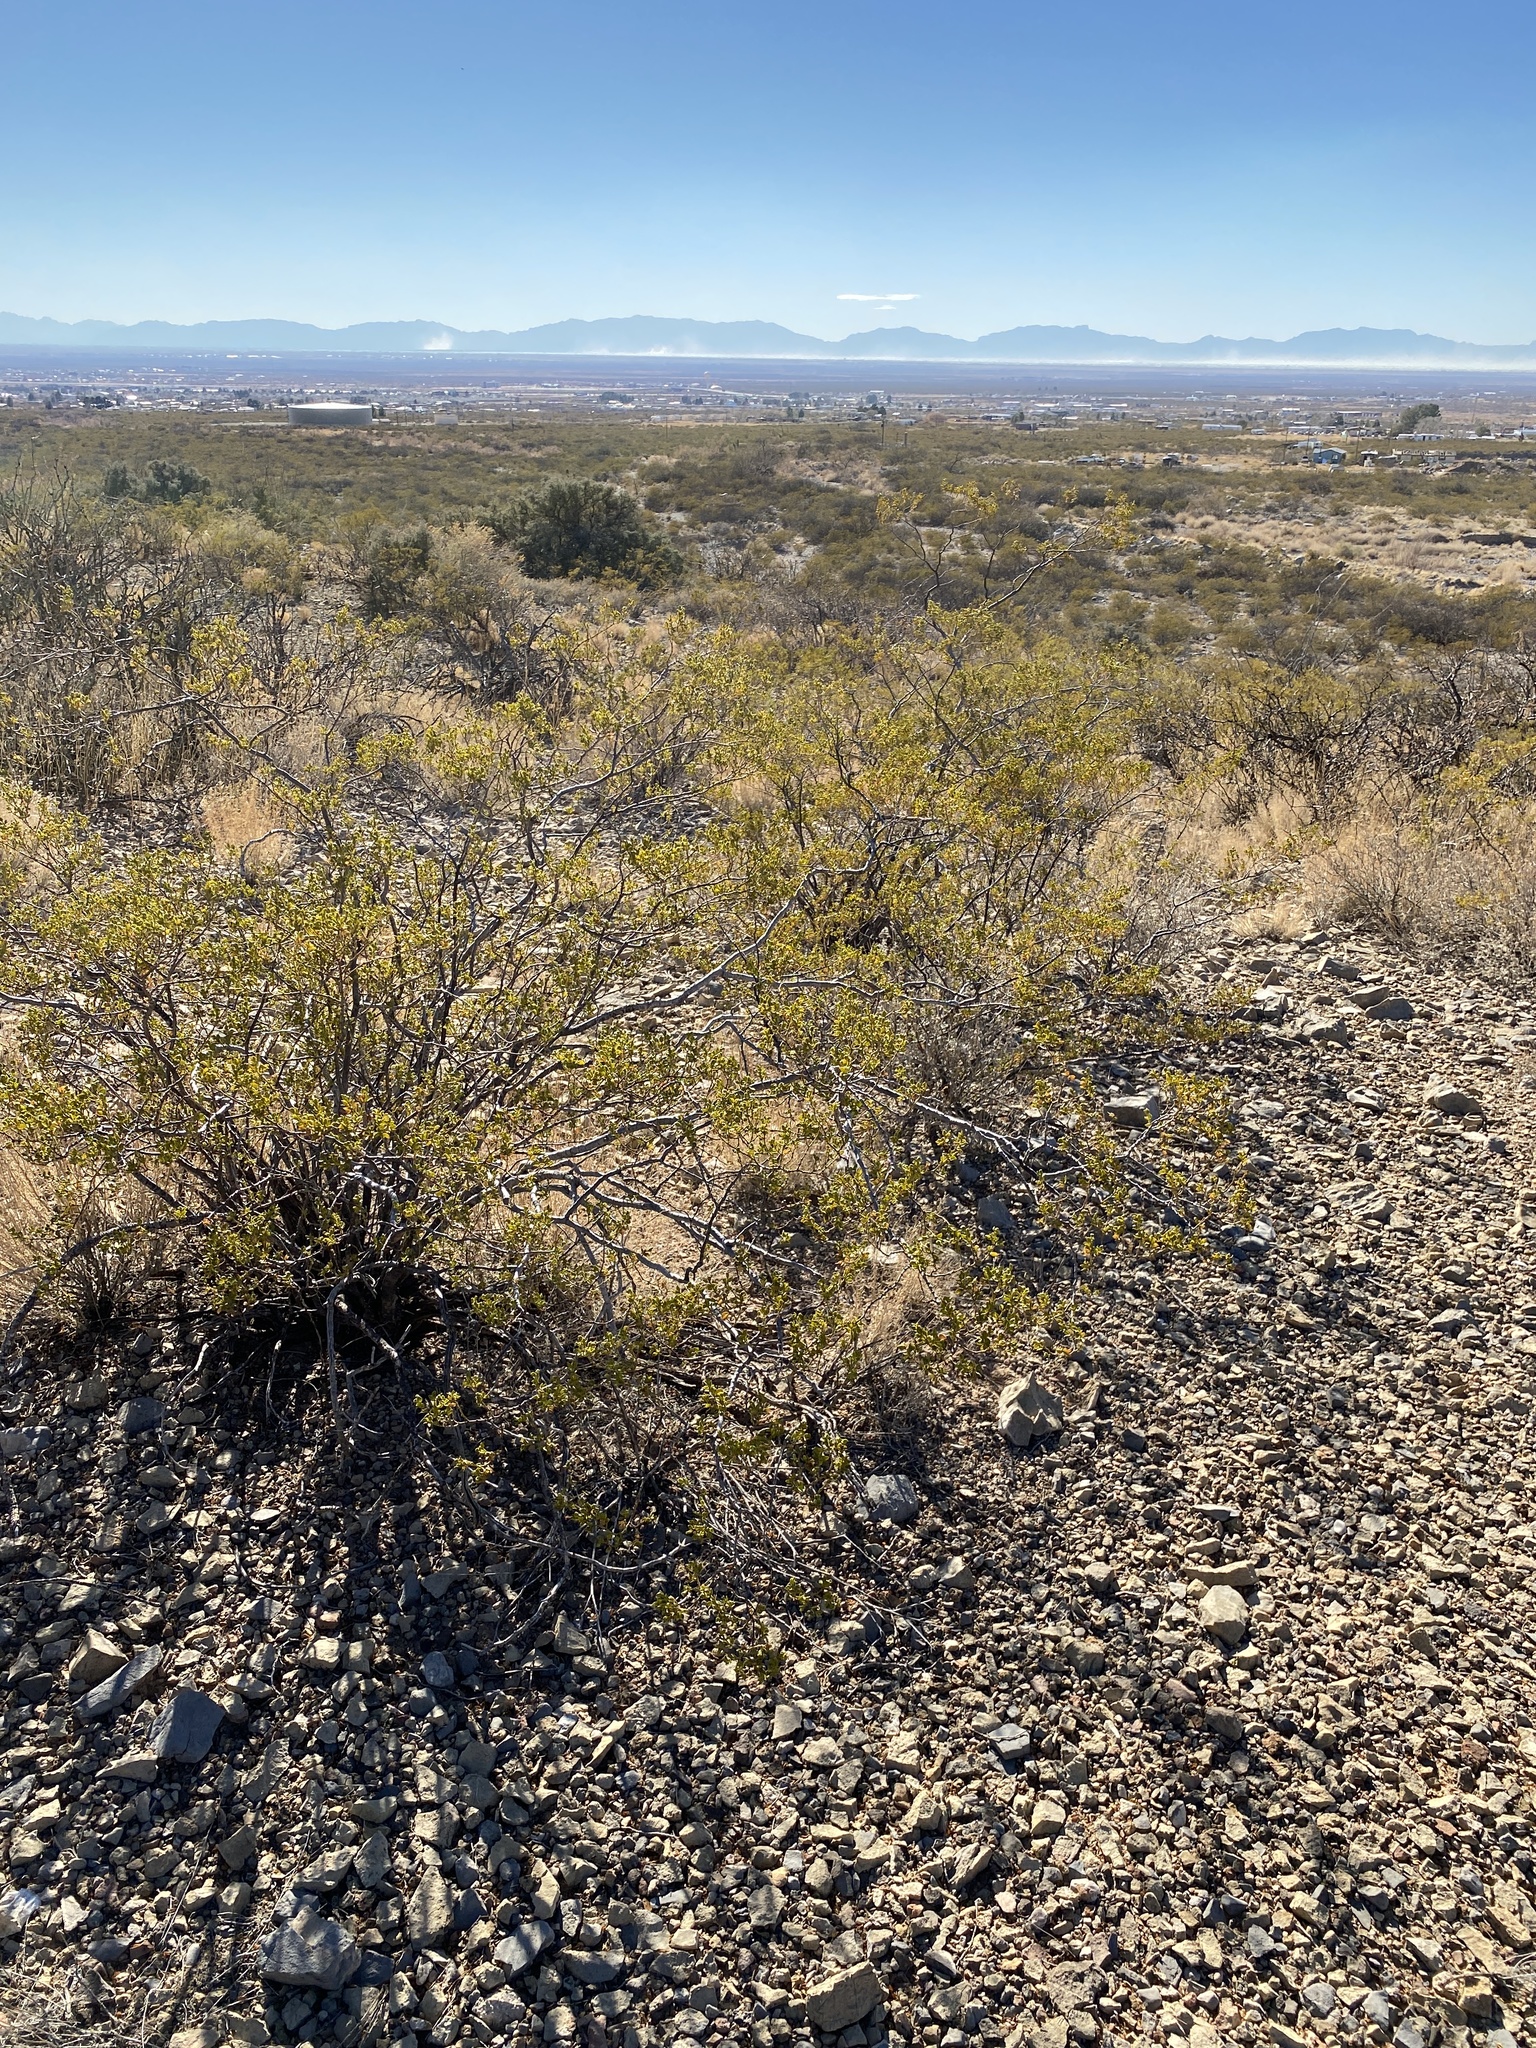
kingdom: Plantae
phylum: Tracheophyta
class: Magnoliopsida
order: Zygophyllales
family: Zygophyllaceae
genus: Larrea
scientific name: Larrea tridentata
